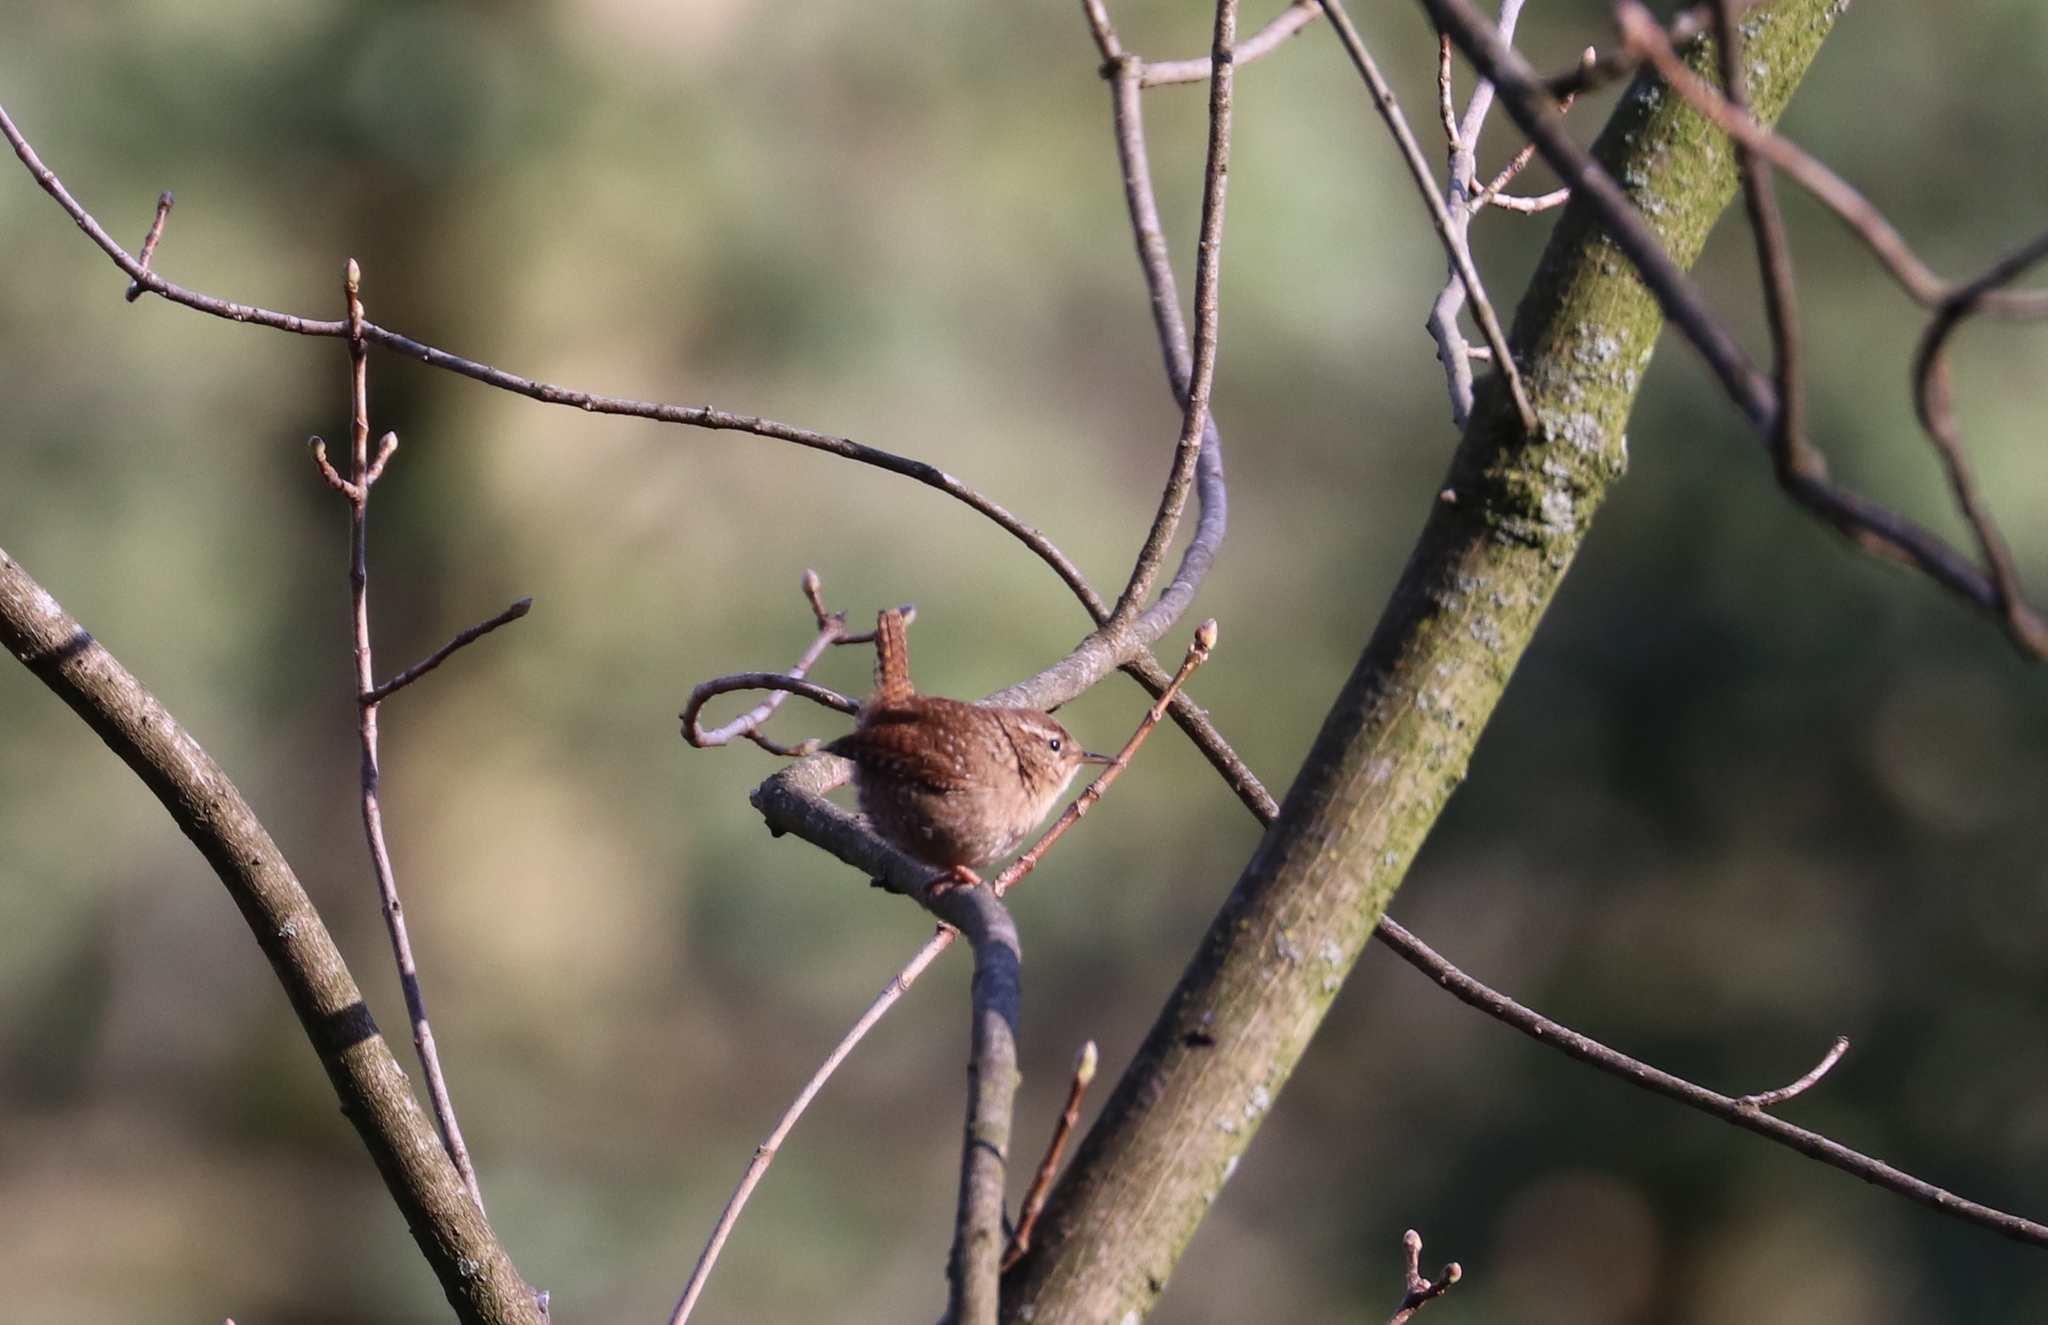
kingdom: Animalia
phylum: Chordata
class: Aves
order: Passeriformes
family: Troglodytidae
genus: Troglodytes
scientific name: Troglodytes troglodytes
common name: Eurasian wren
